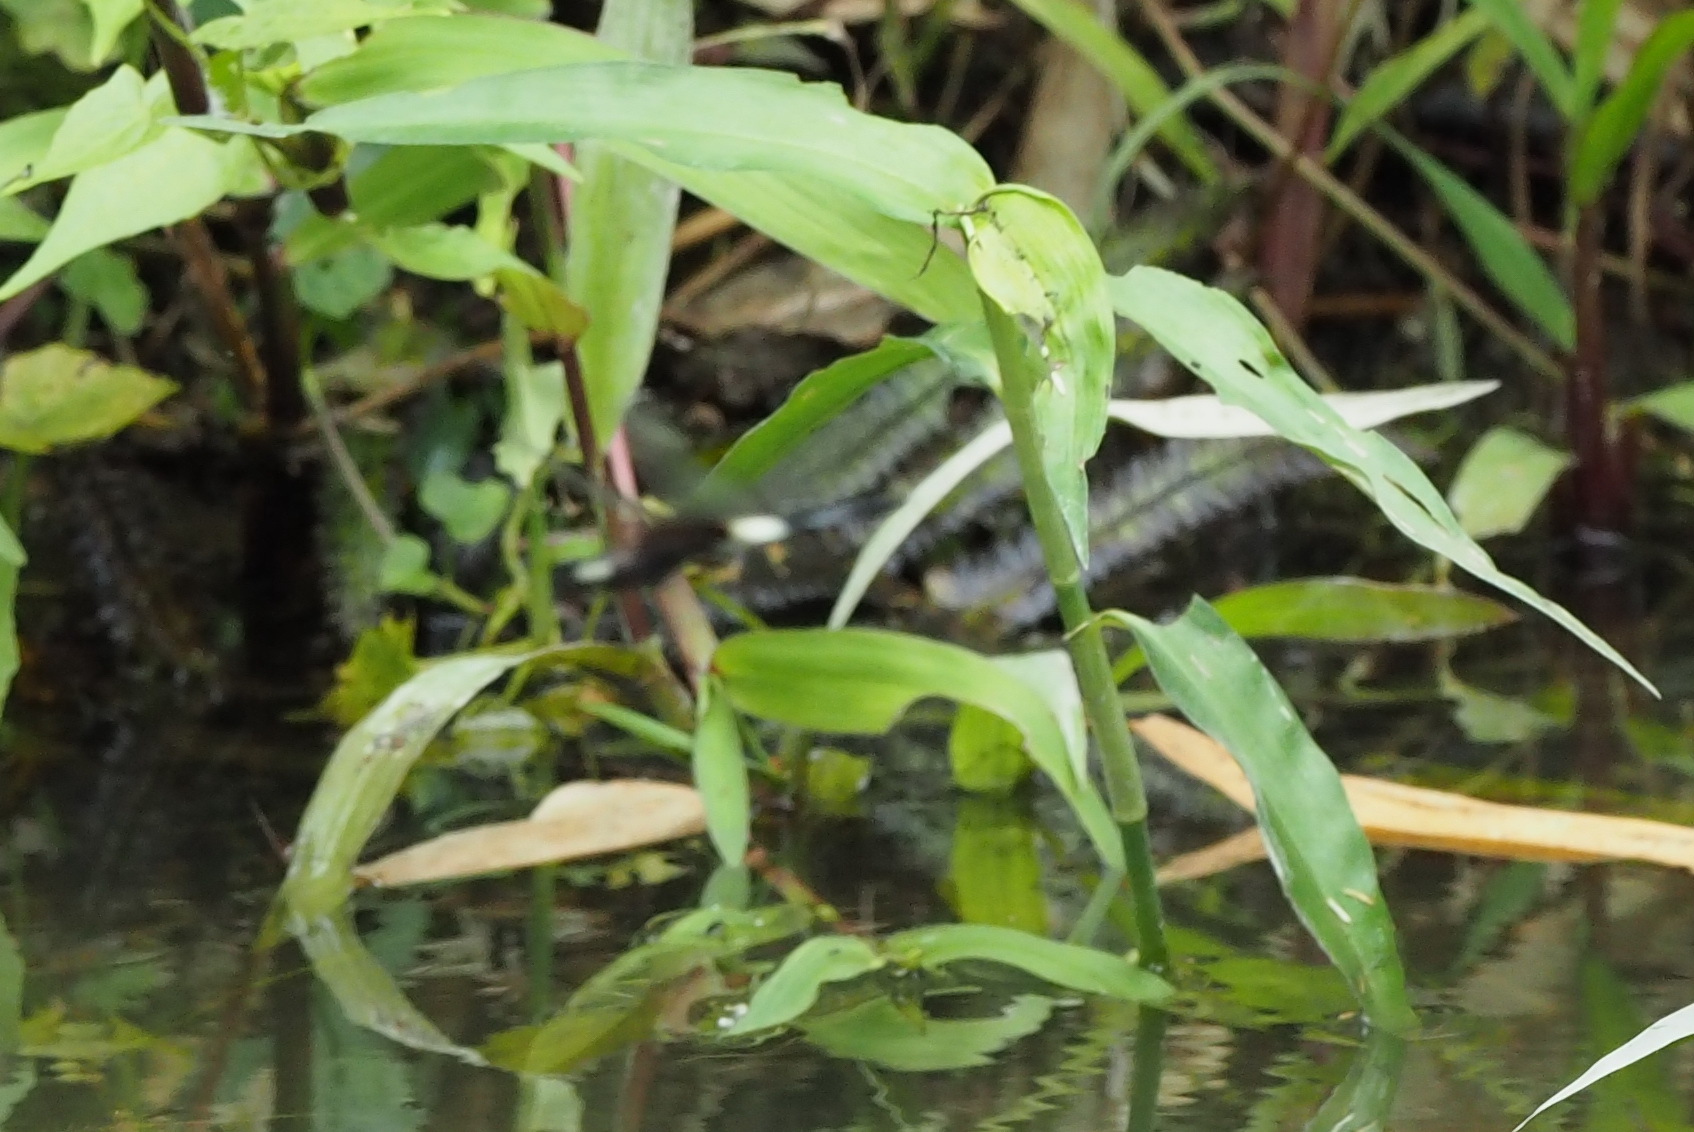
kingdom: Animalia
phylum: Arthropoda
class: Insecta
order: Odonata
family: Libellulidae
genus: Pseudothemis
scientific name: Pseudothemis zonata
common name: Pied skimmer
